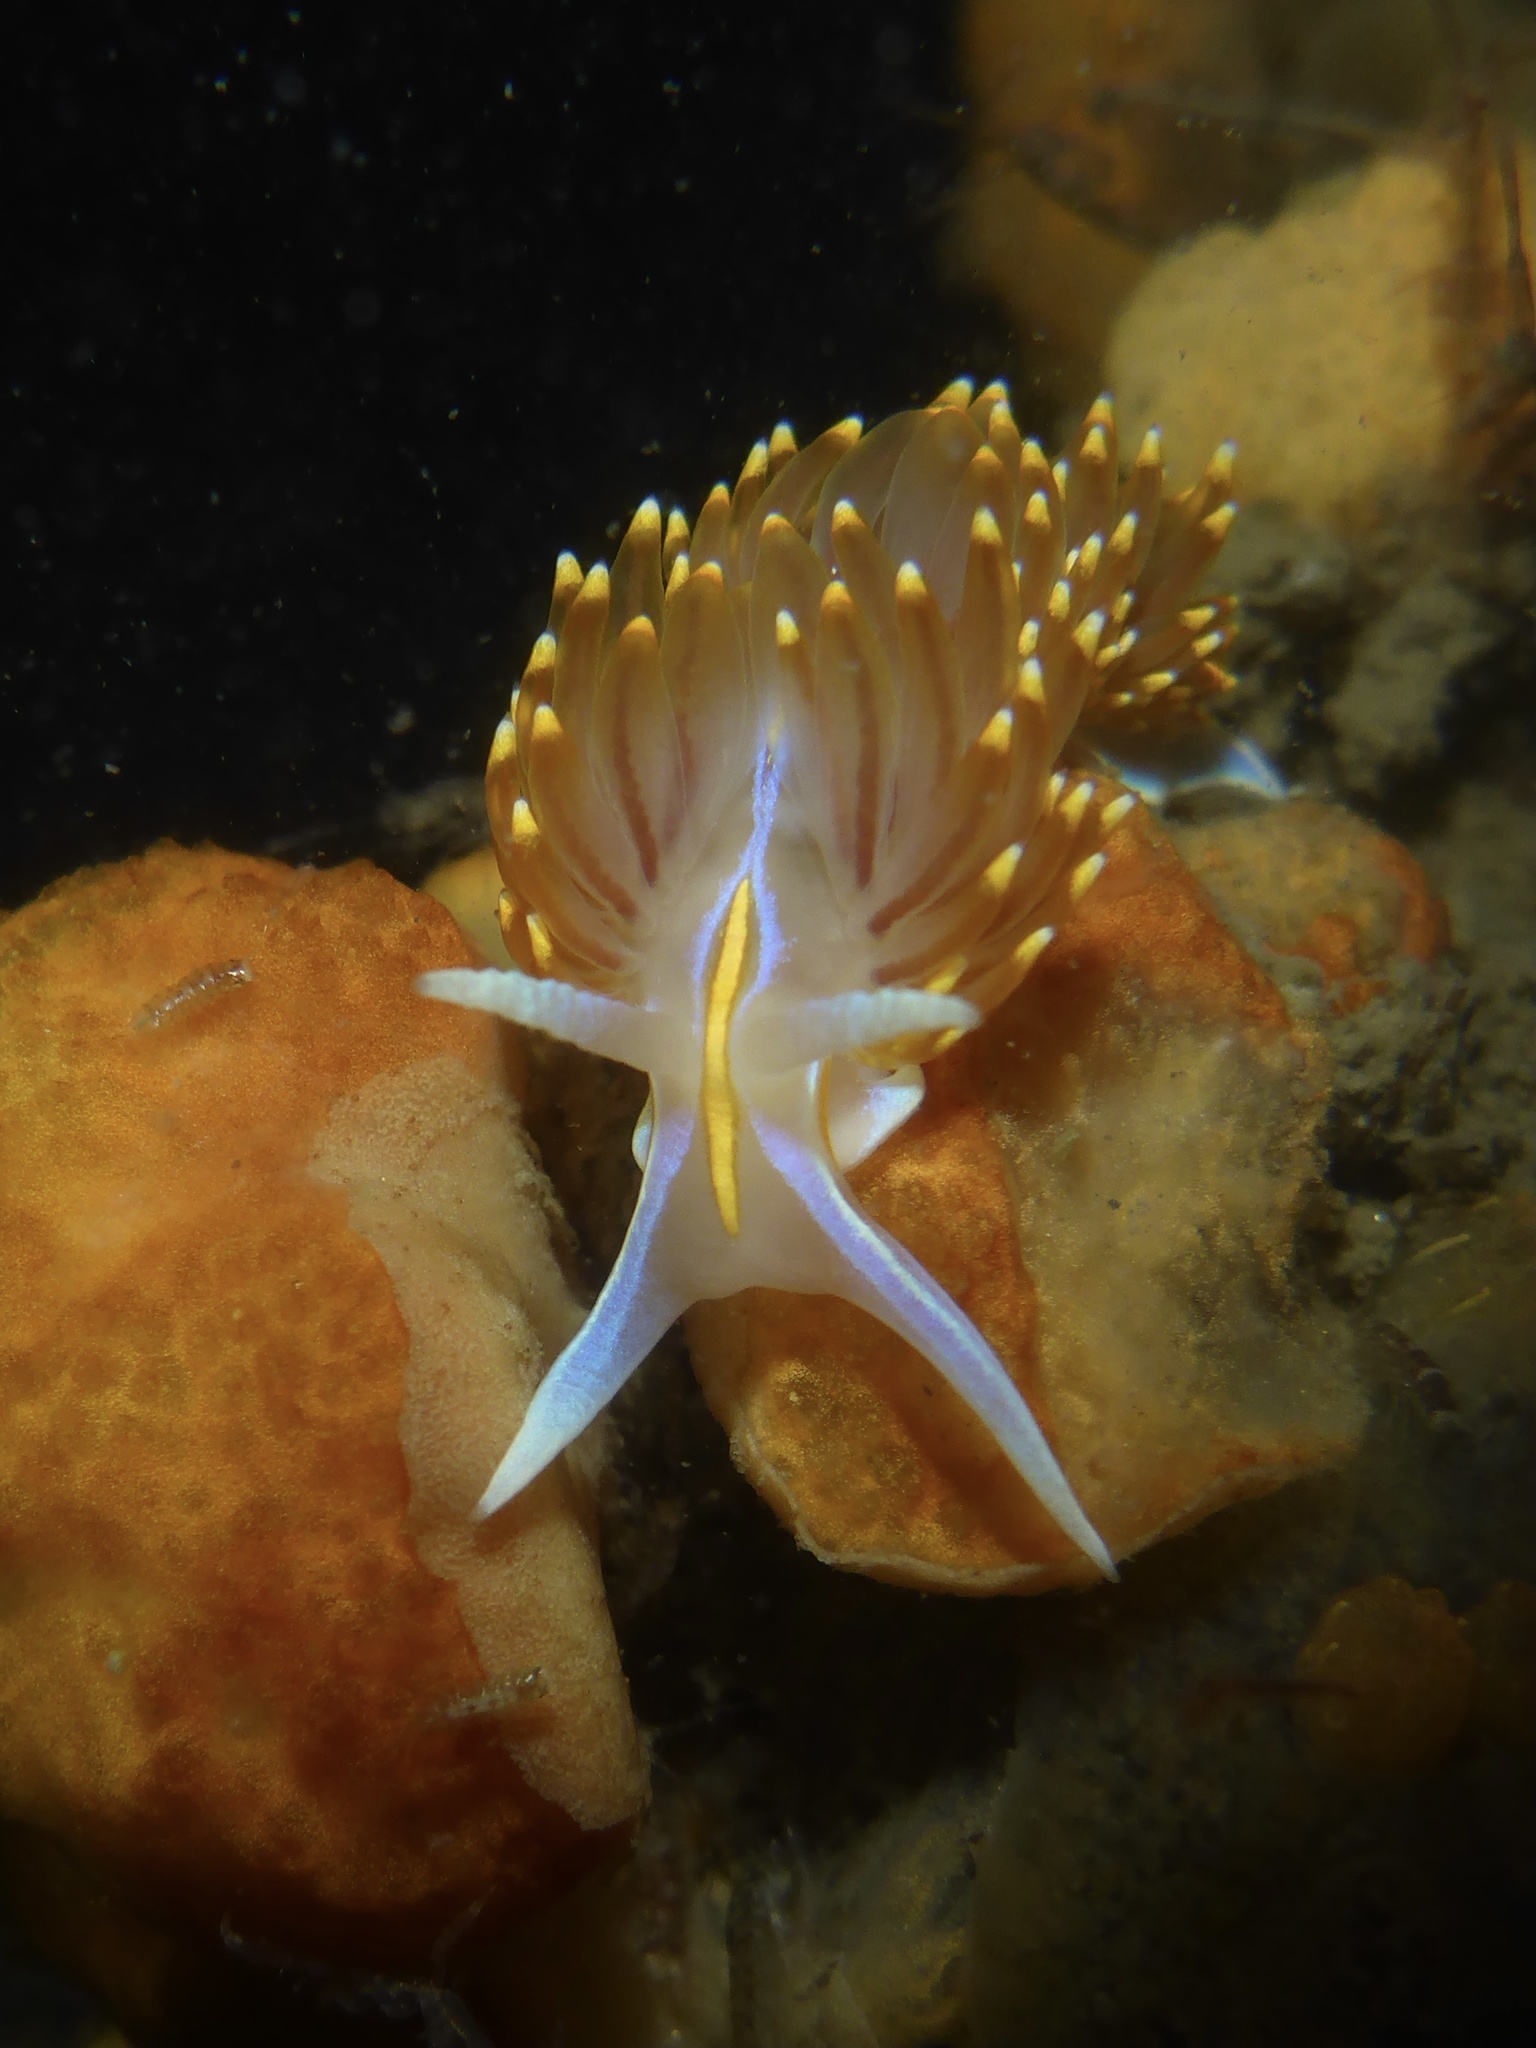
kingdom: Animalia
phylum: Mollusca
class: Gastropoda
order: Nudibranchia
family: Myrrhinidae
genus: Hermissenda
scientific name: Hermissenda opalescens
